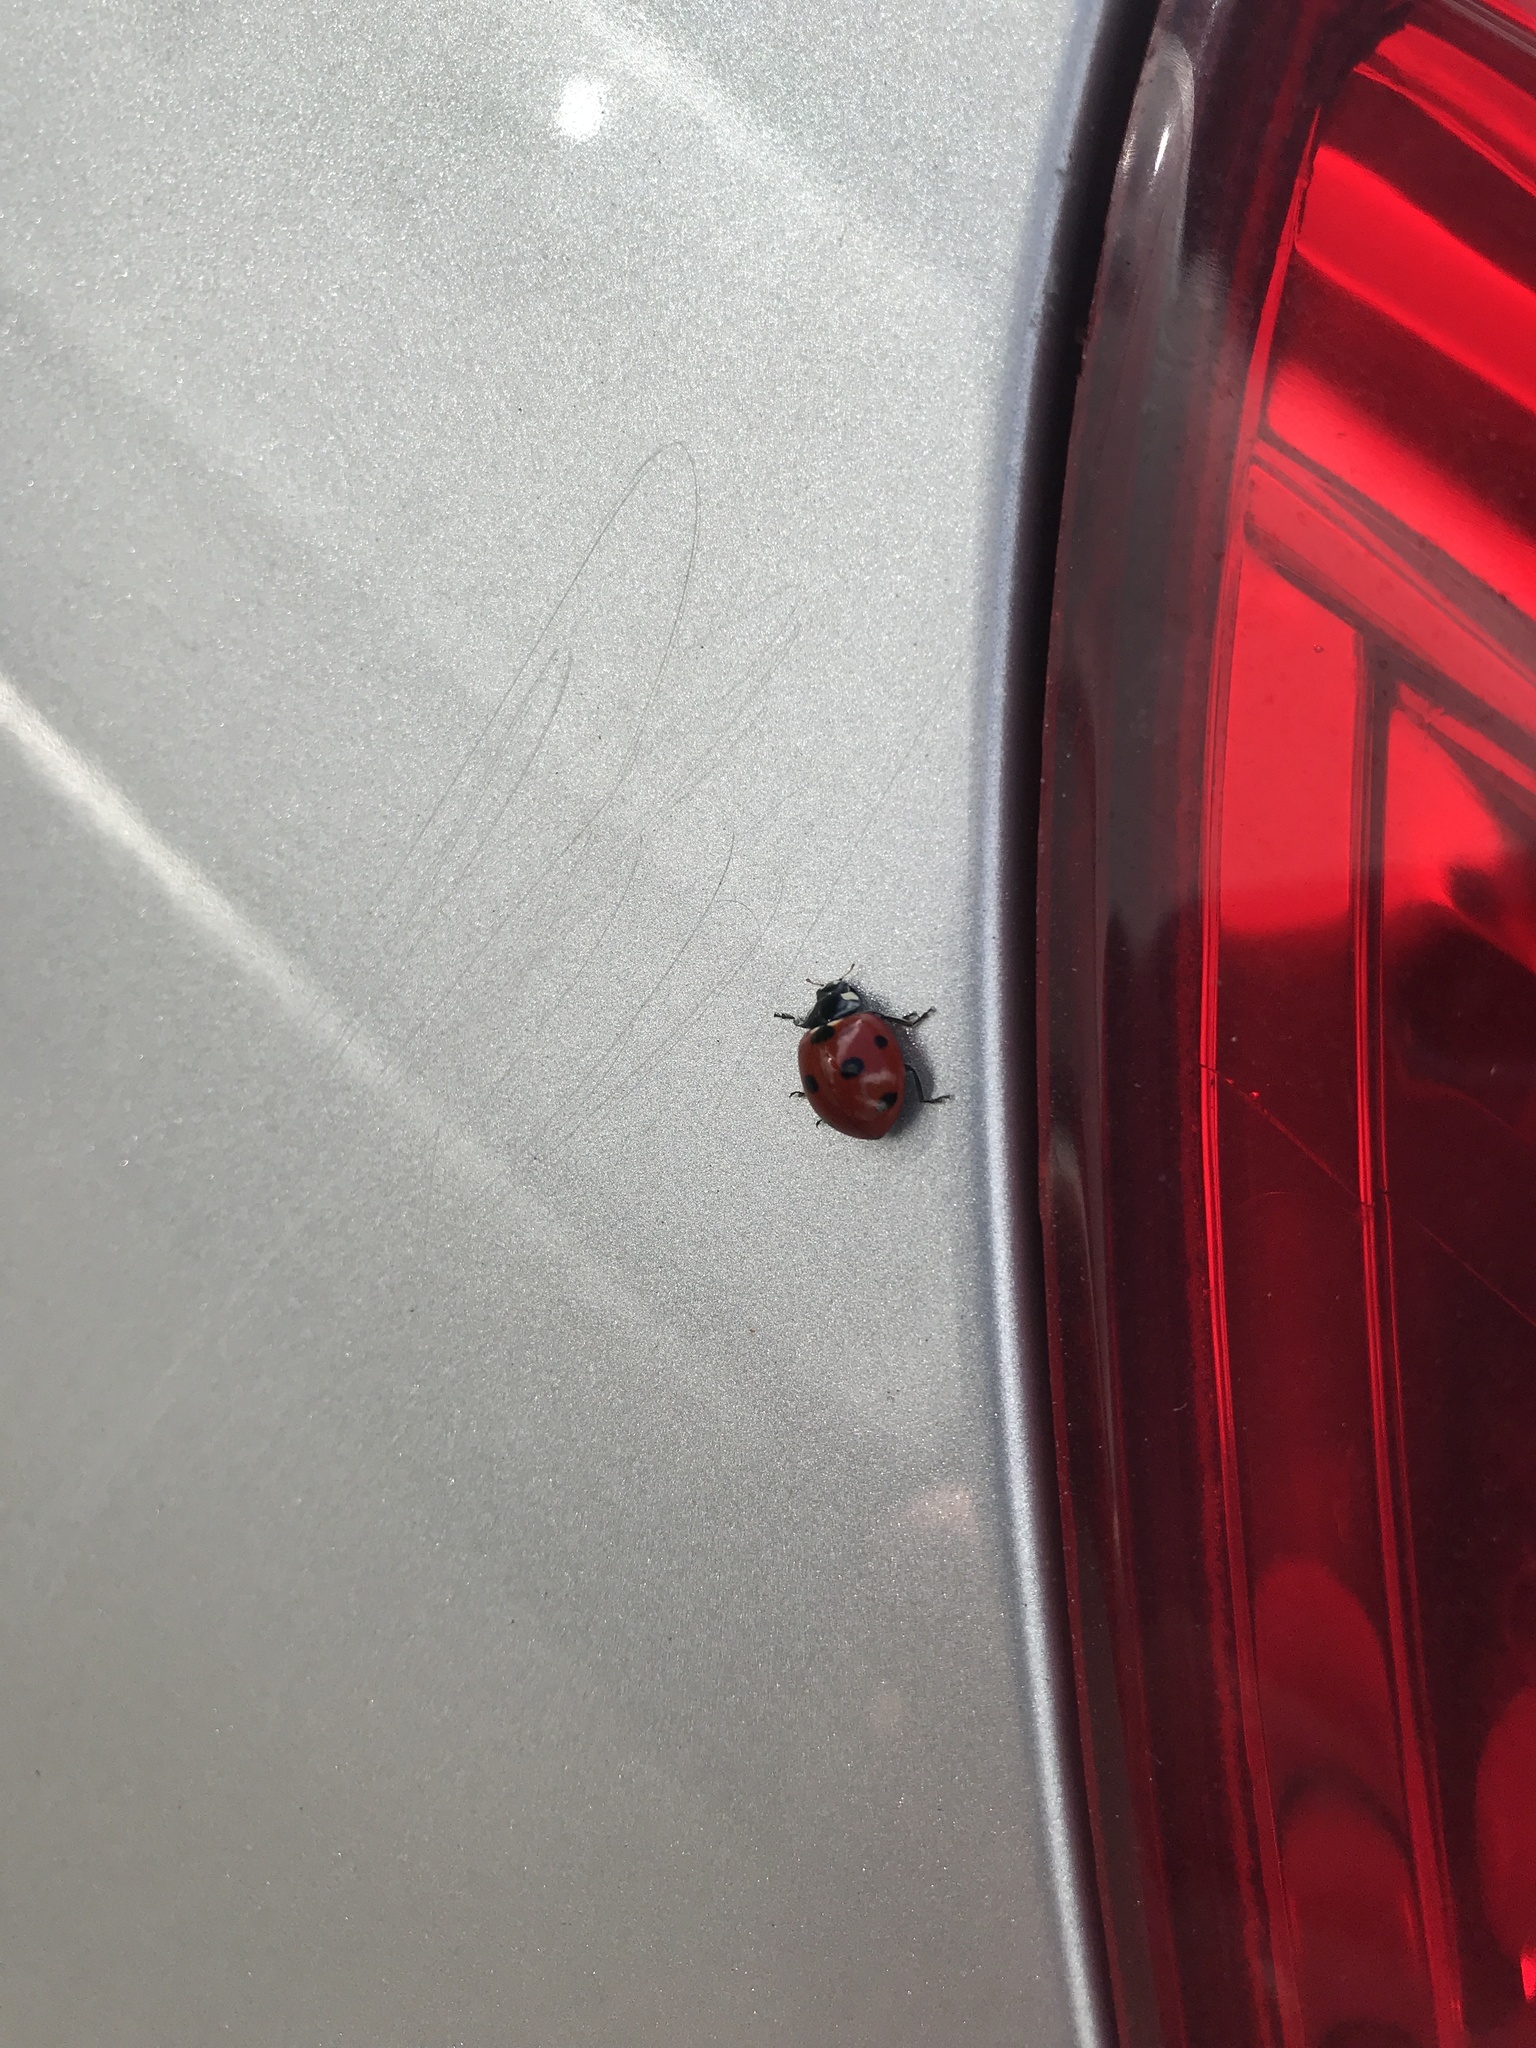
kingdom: Animalia
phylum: Arthropoda
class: Insecta
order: Coleoptera
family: Coccinellidae
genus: Coccinella
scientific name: Coccinella septempunctata
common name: Sevenspotted lady beetle
